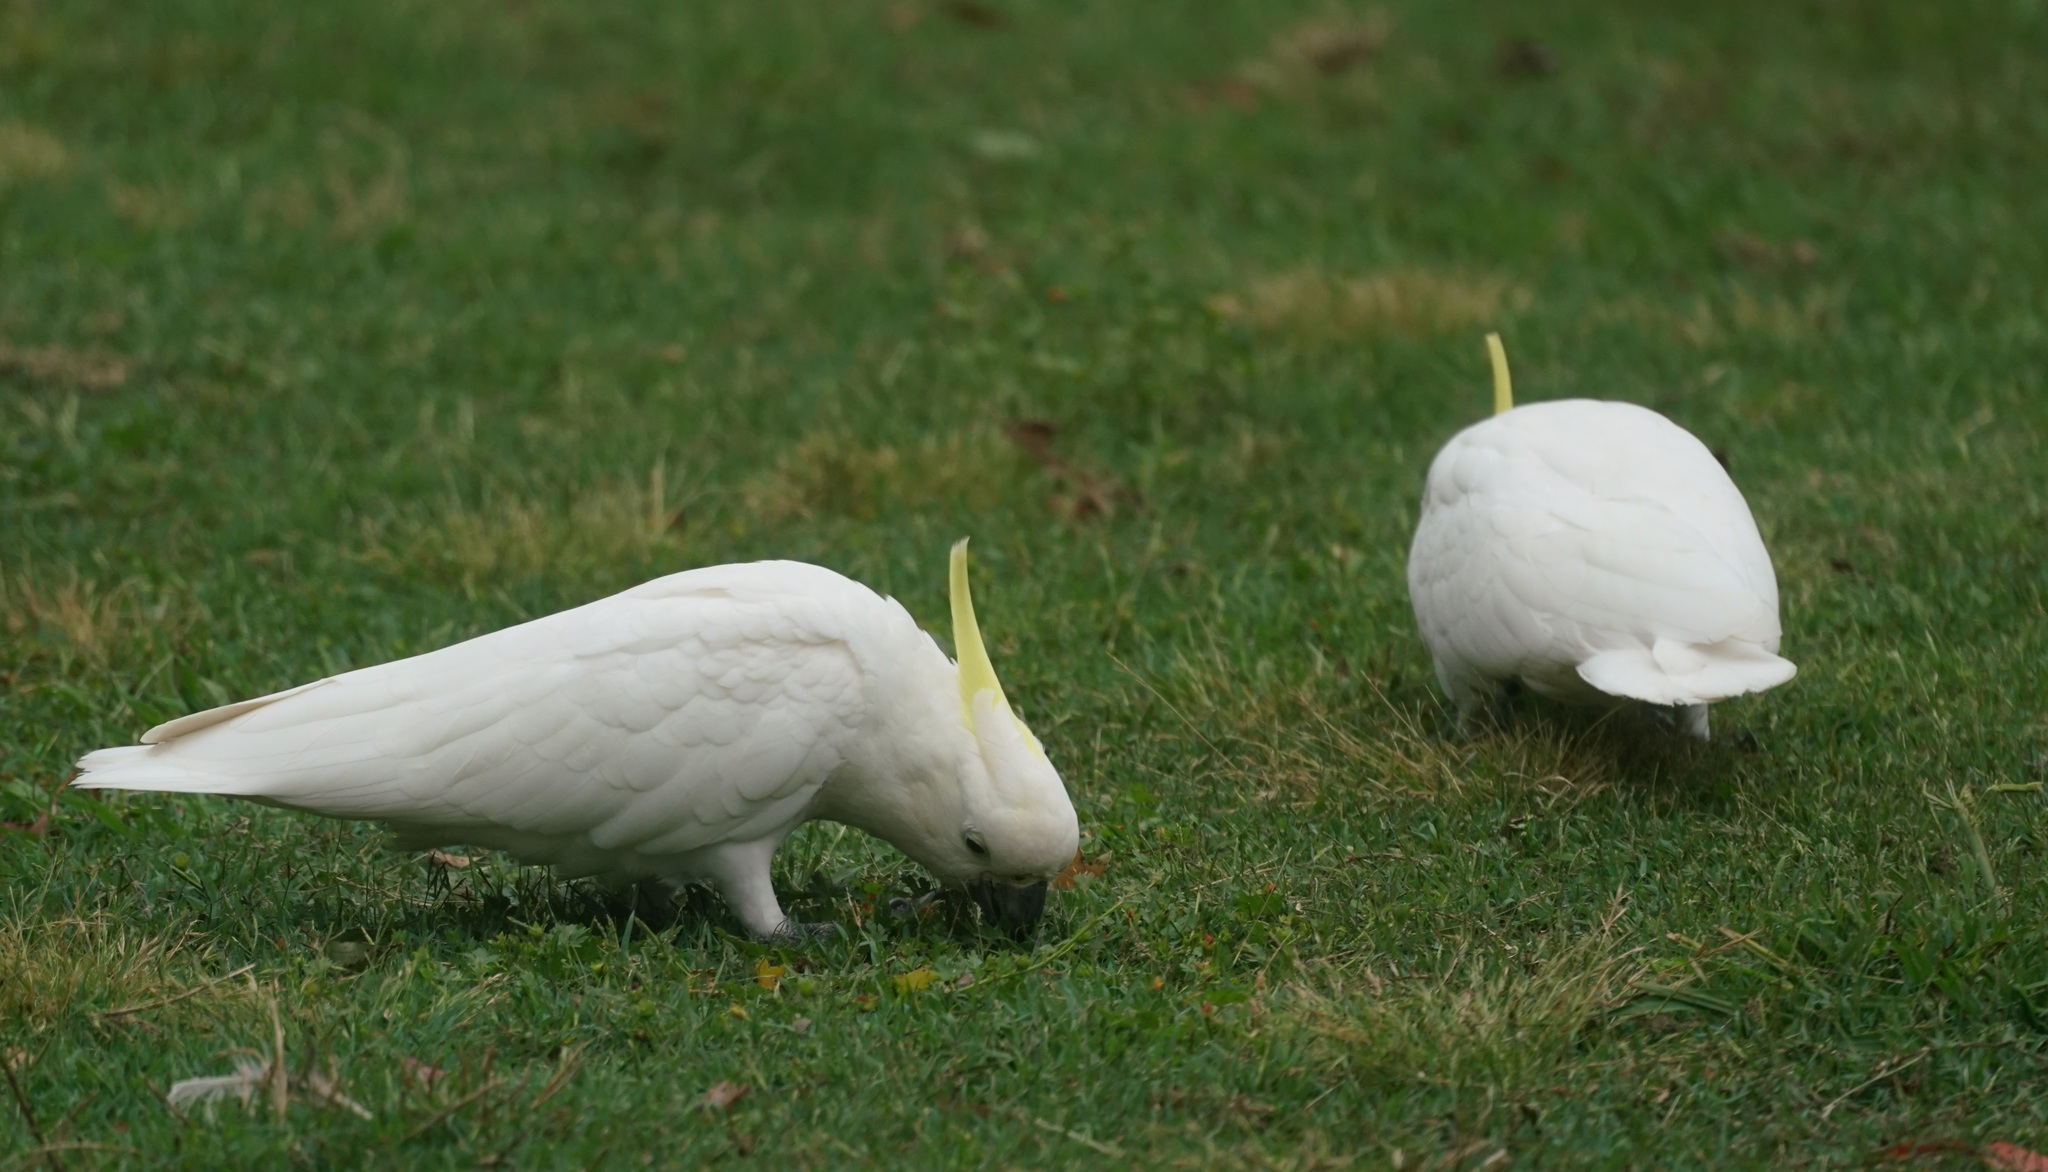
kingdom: Animalia
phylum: Chordata
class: Aves
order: Psittaciformes
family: Psittacidae
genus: Cacatua
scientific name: Cacatua galerita
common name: Sulphur-crested cockatoo
